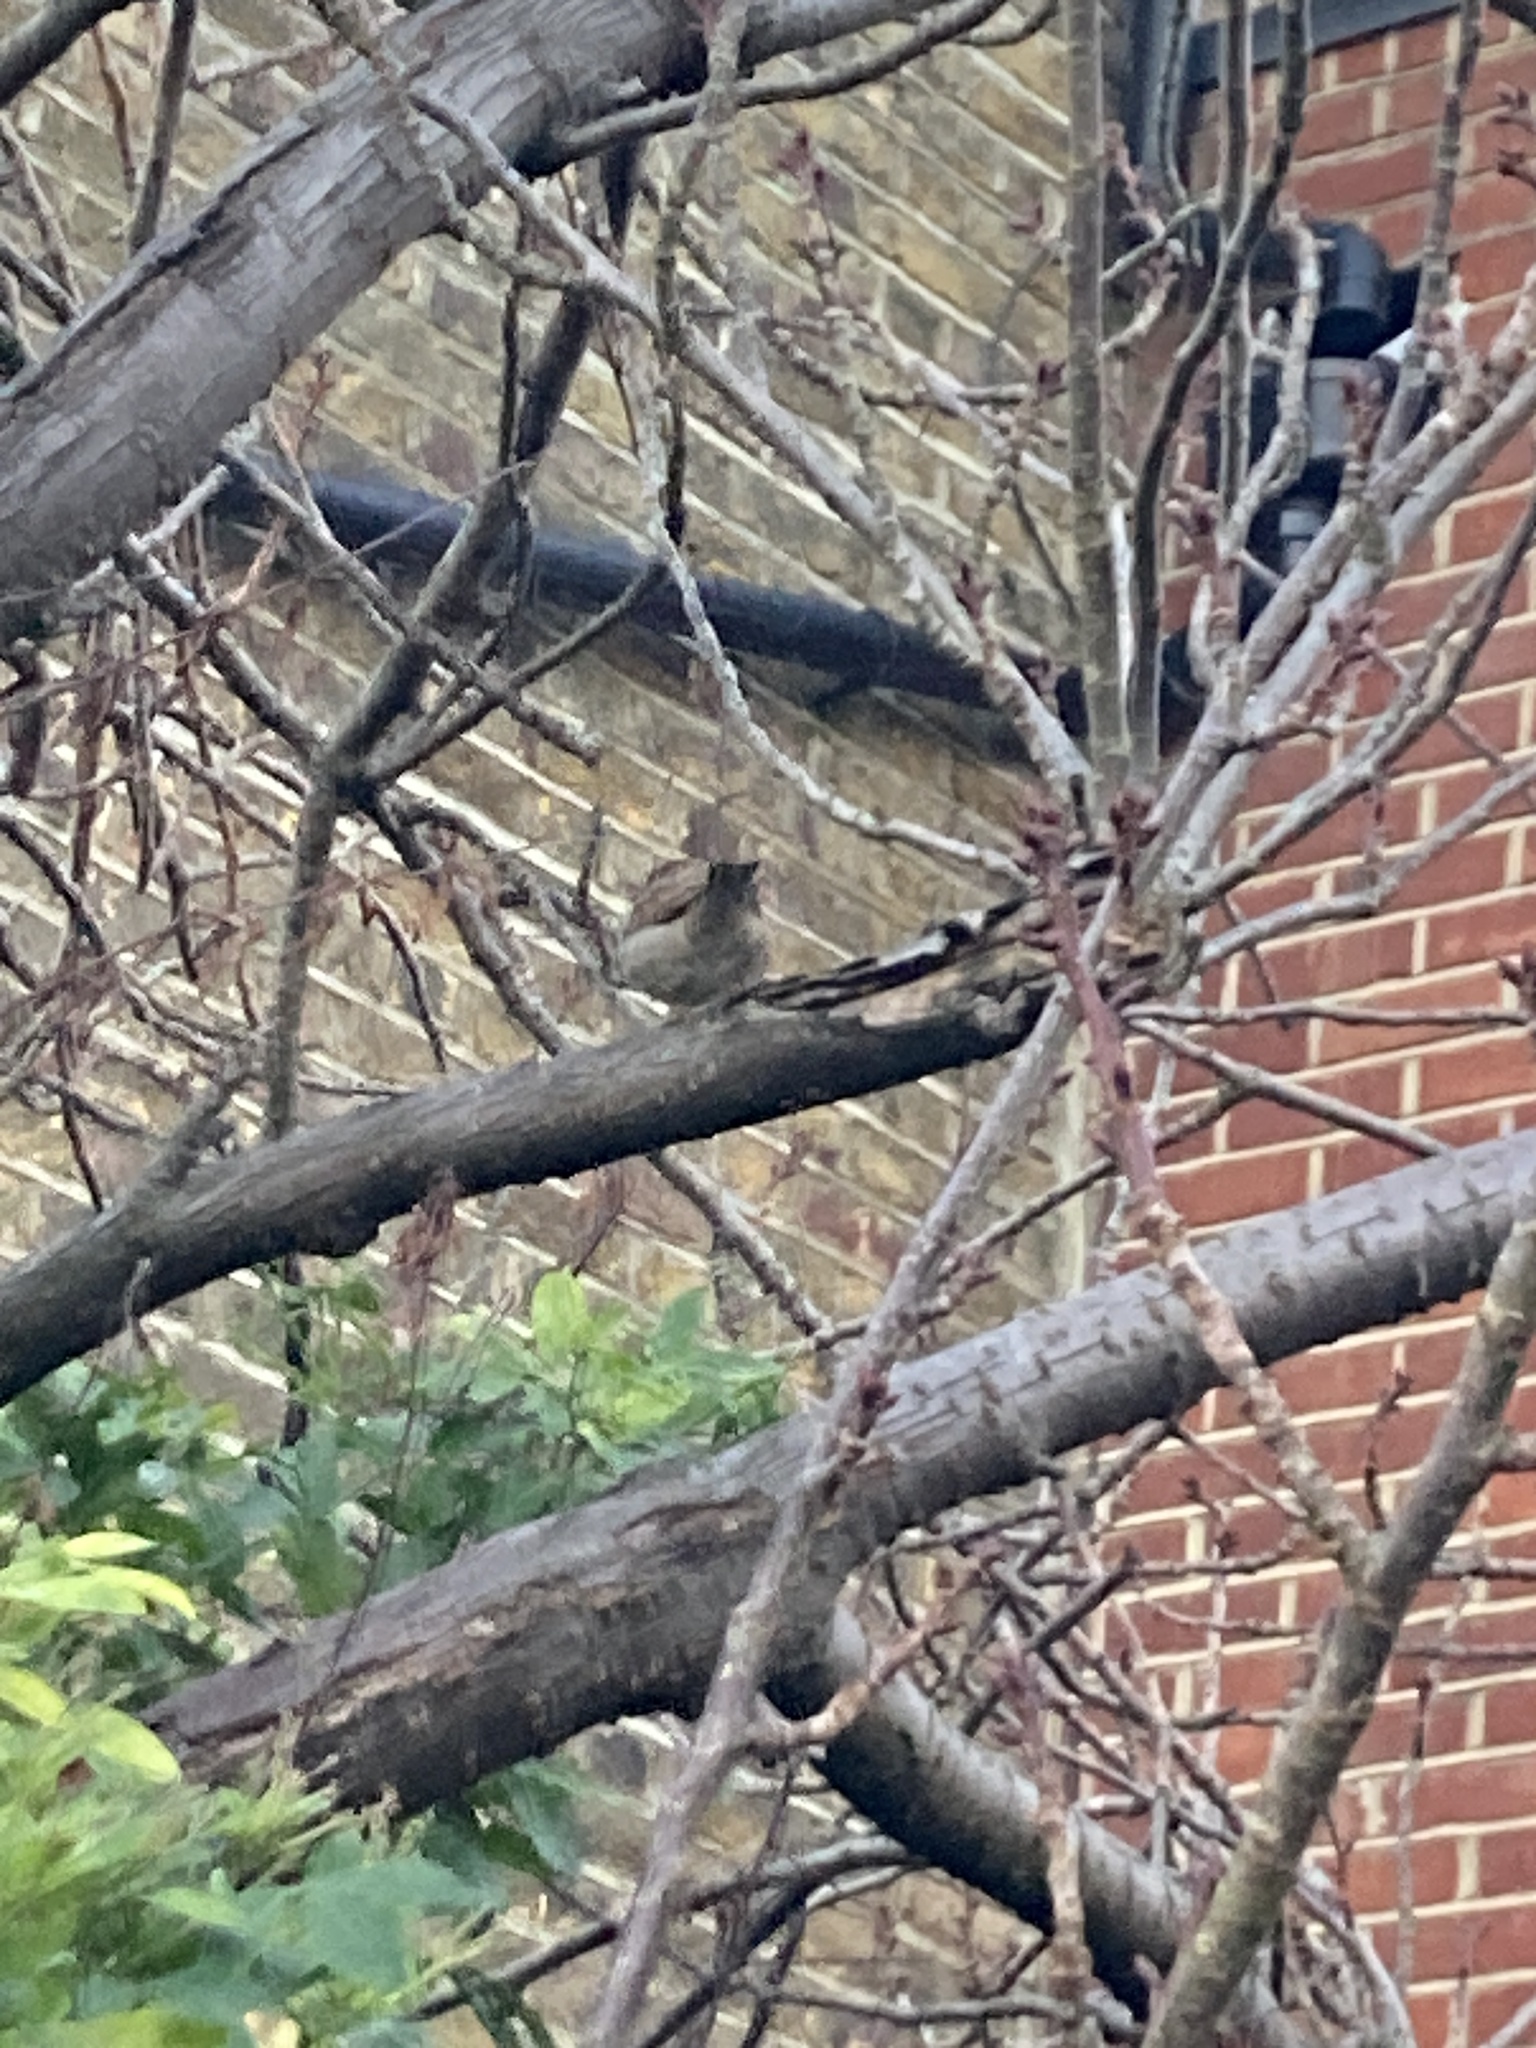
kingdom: Animalia
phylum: Chordata
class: Aves
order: Passeriformes
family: Passeridae
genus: Passer
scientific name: Passer domesticus
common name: House sparrow
